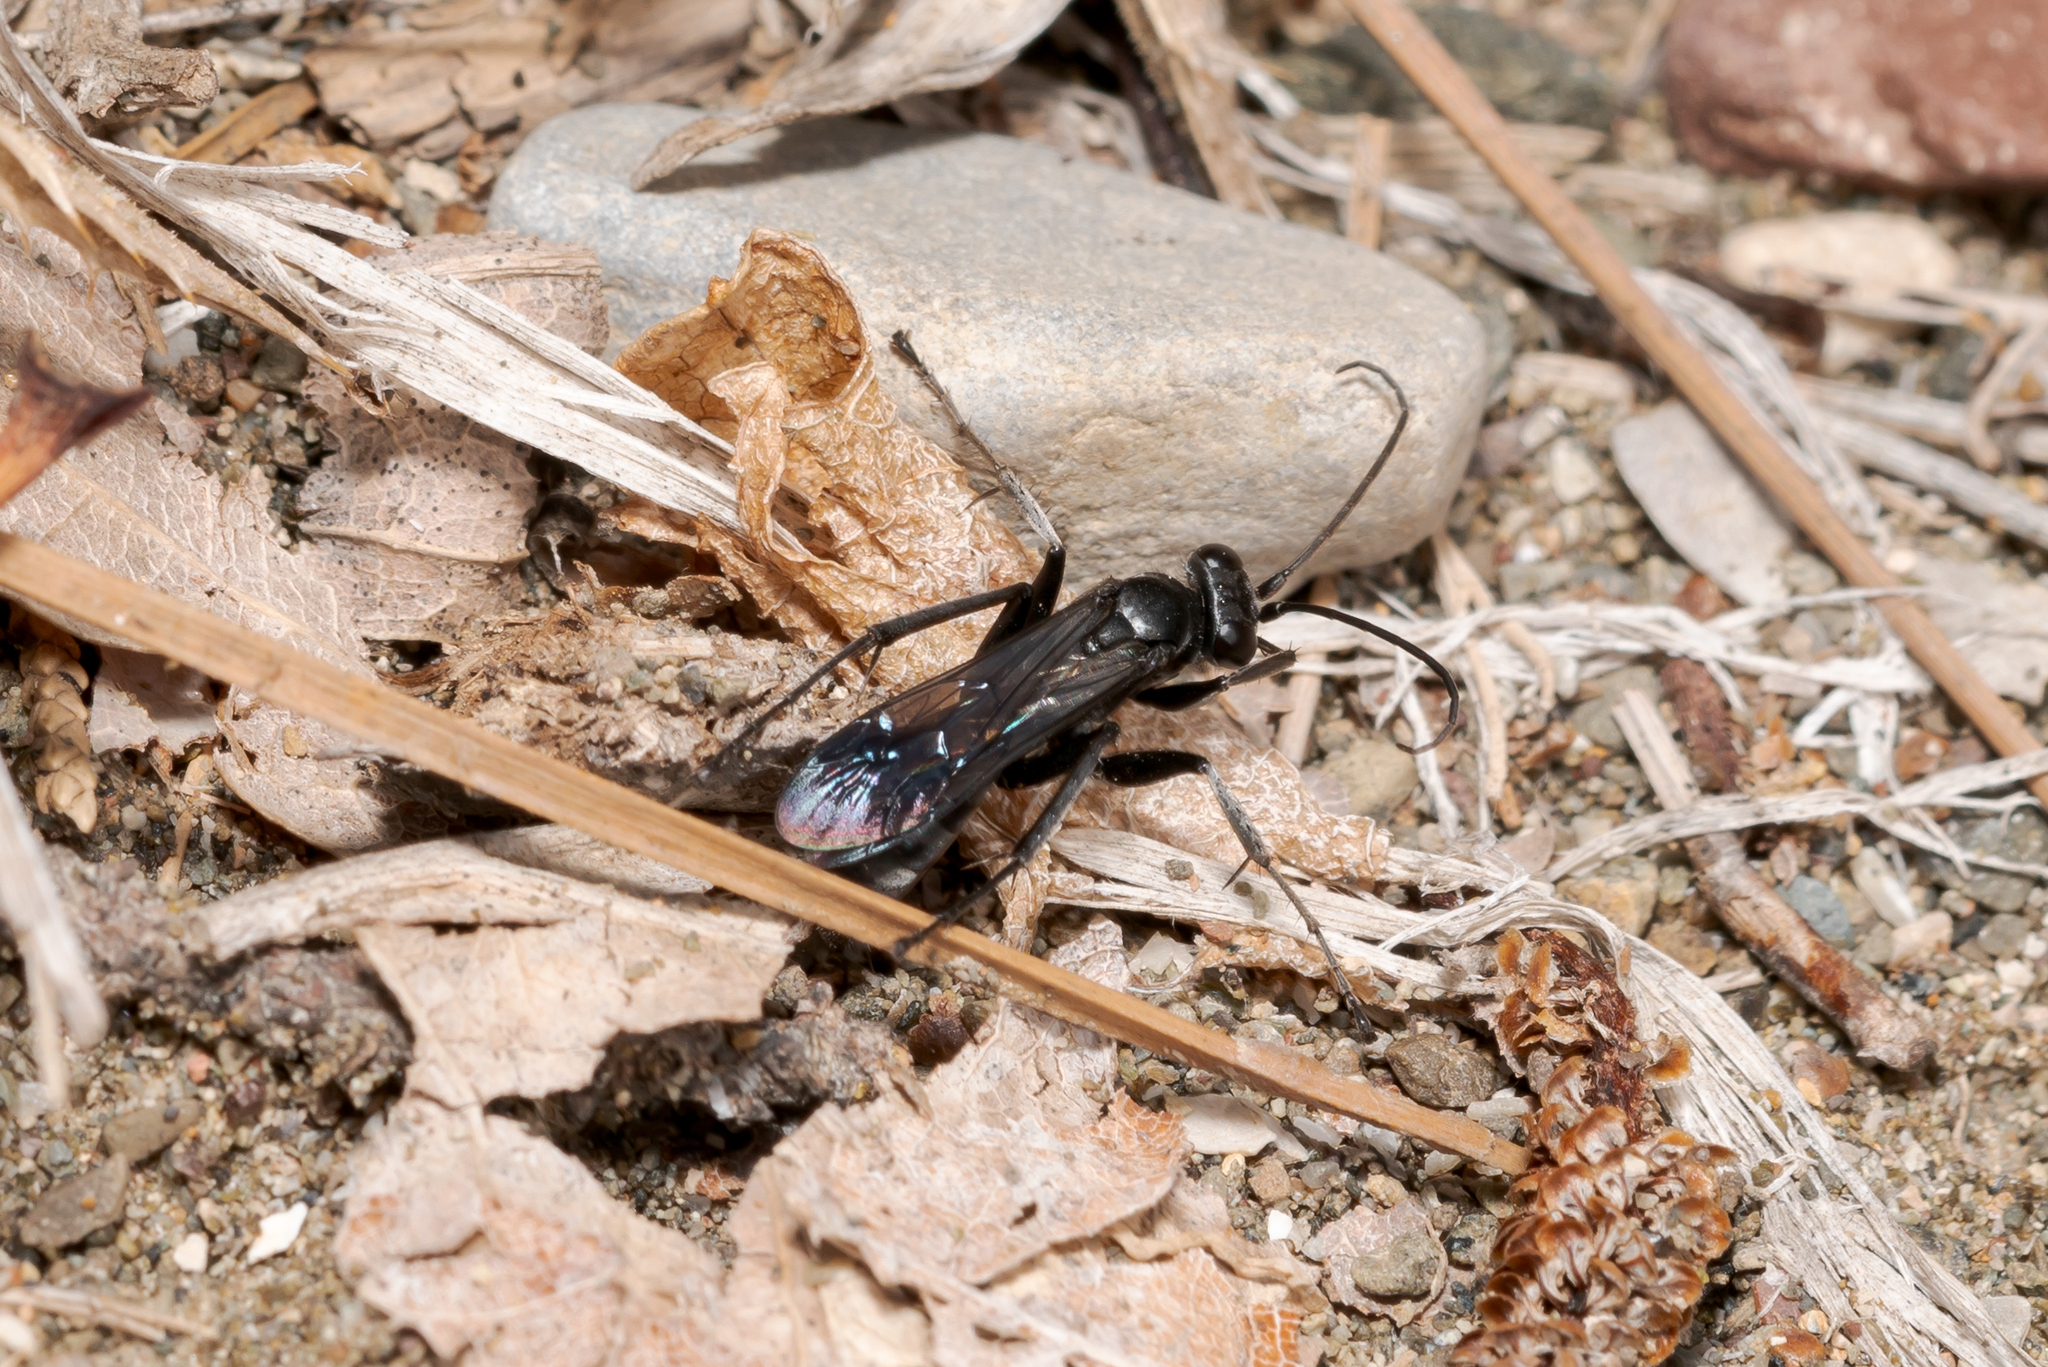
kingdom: Animalia
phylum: Arthropoda
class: Insecta
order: Hymenoptera
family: Pompilidae
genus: Anoplius
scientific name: Anoplius concinnus
